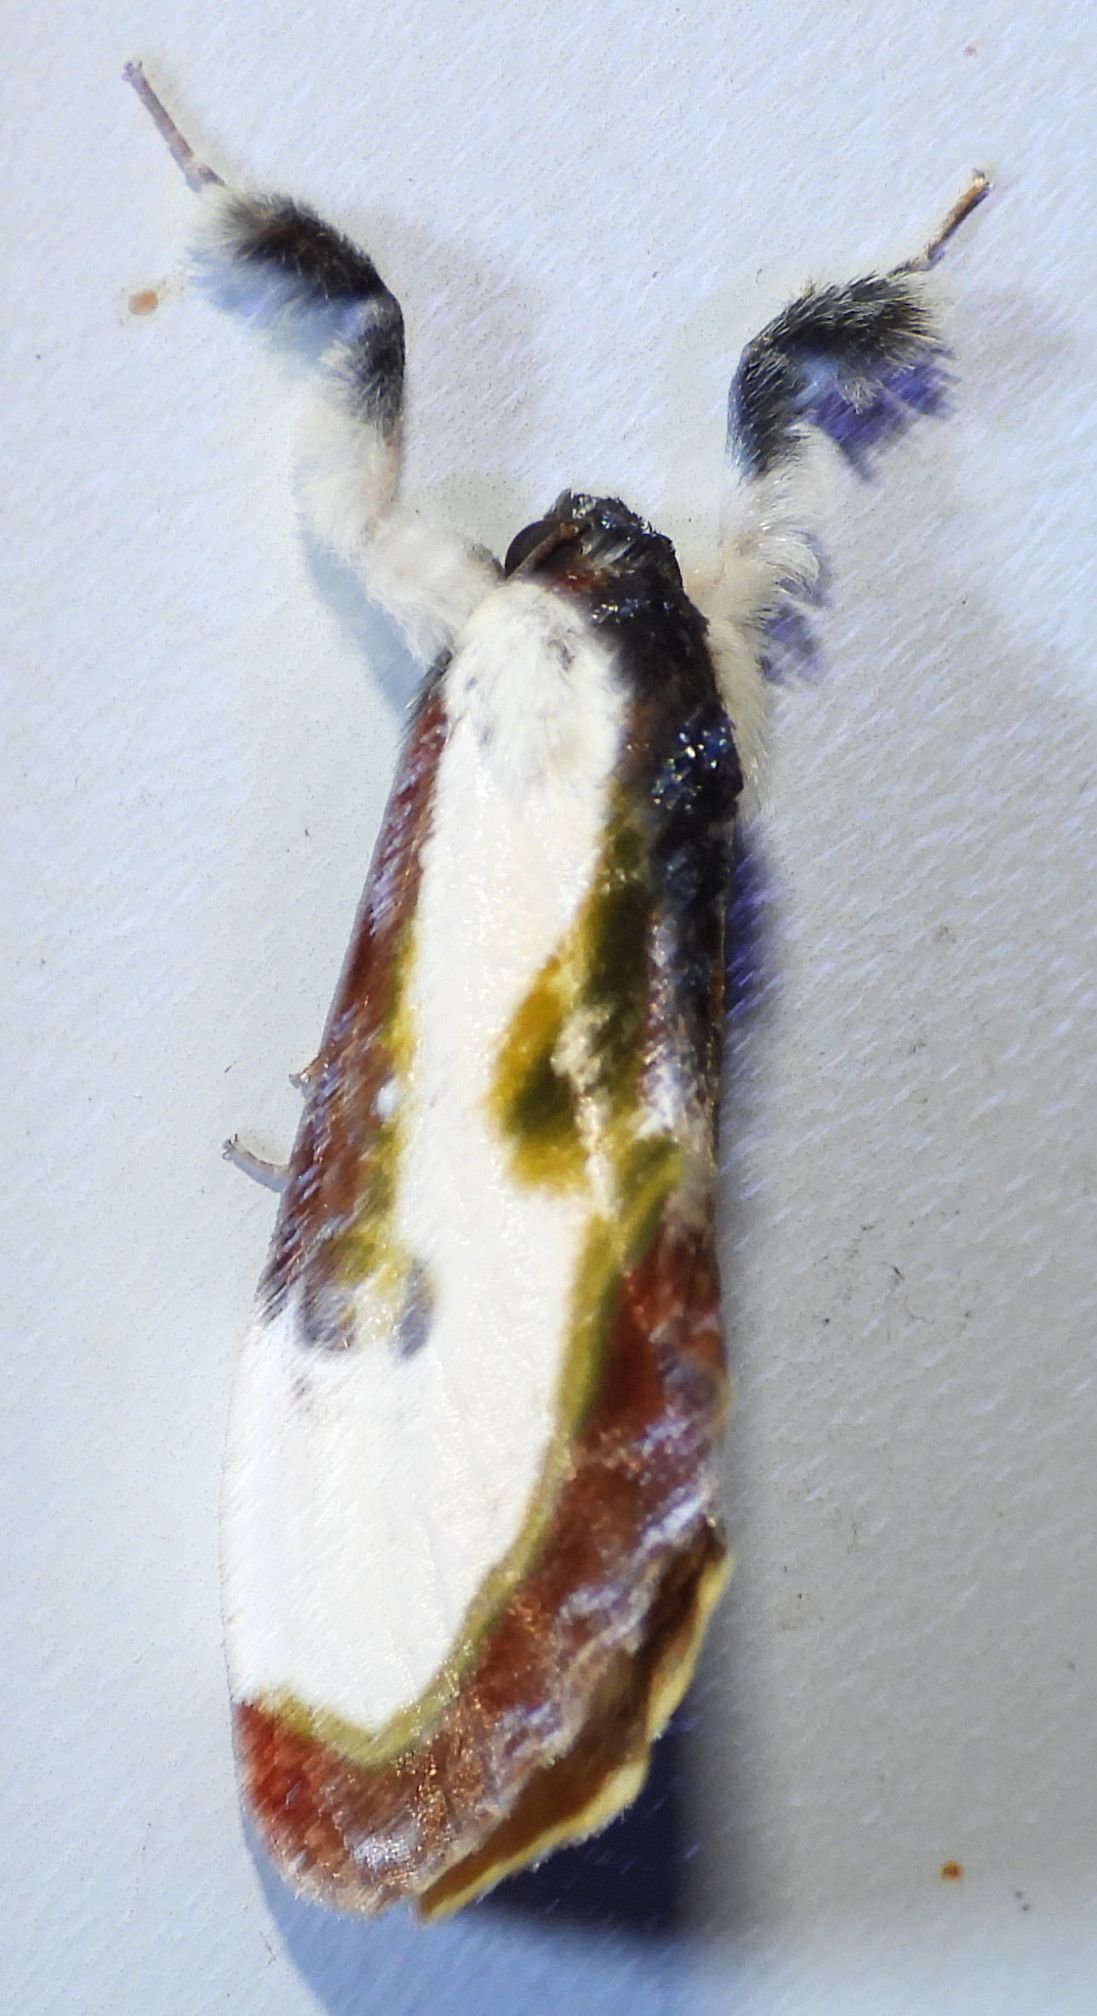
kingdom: Animalia
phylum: Arthropoda
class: Insecta
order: Lepidoptera
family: Noctuidae
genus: Eudryas
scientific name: Eudryas grata
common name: Beautiful wood-nymph
